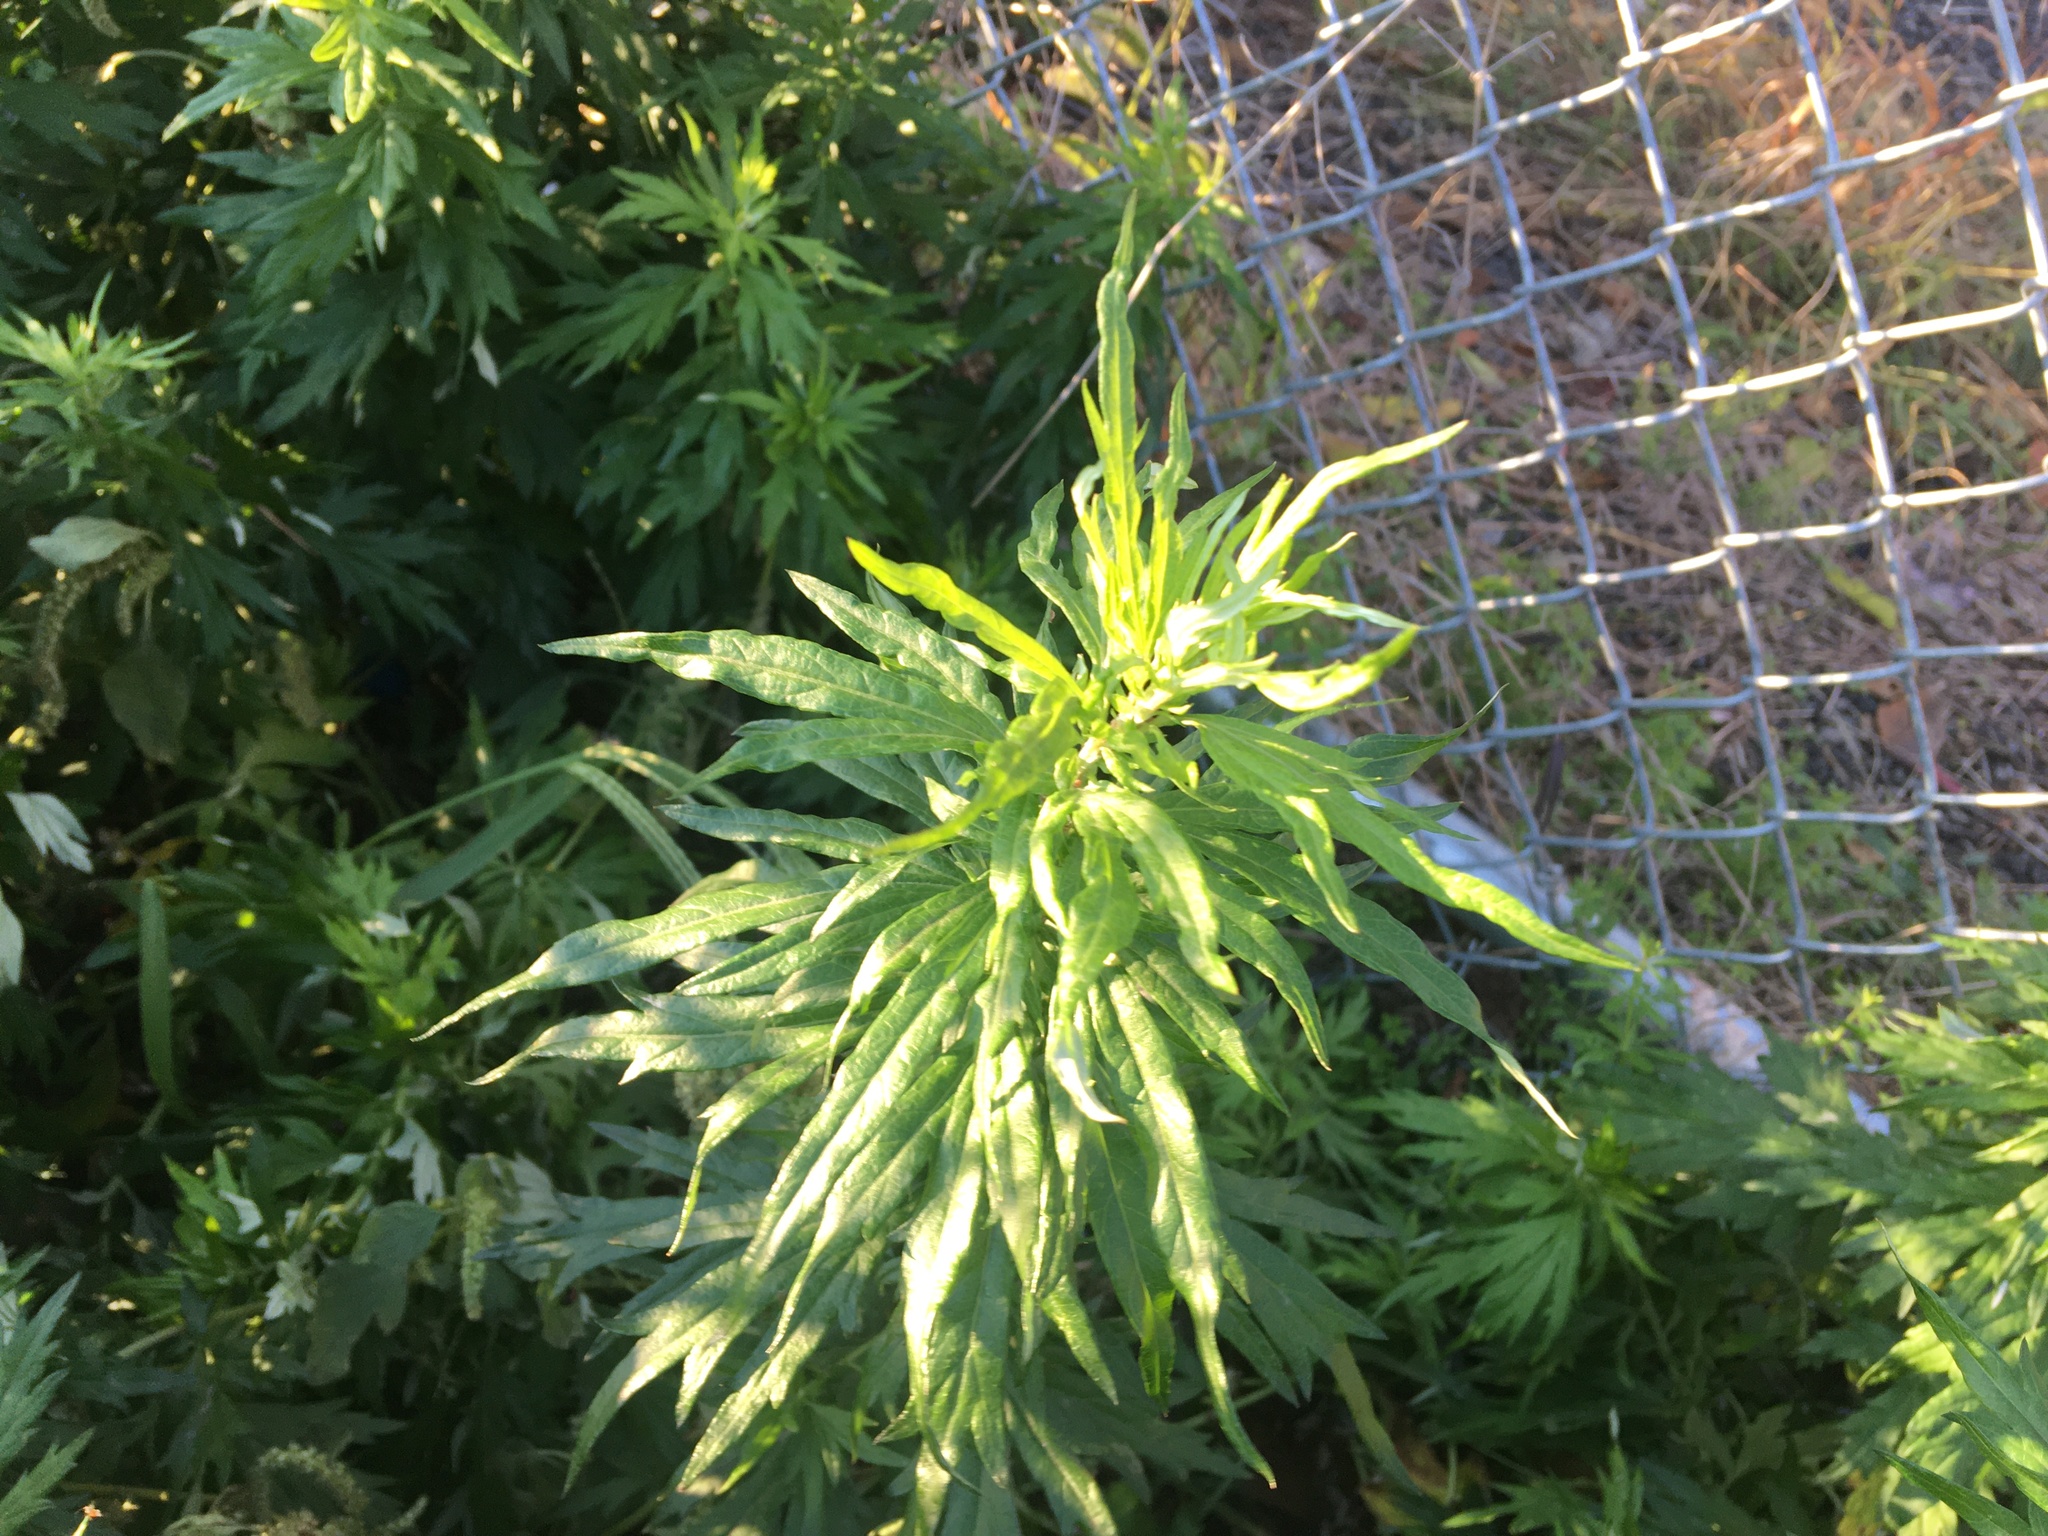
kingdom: Plantae
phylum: Tracheophyta
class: Magnoliopsida
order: Asterales
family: Asteraceae
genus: Artemisia
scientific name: Artemisia vulgaris
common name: Mugwort
